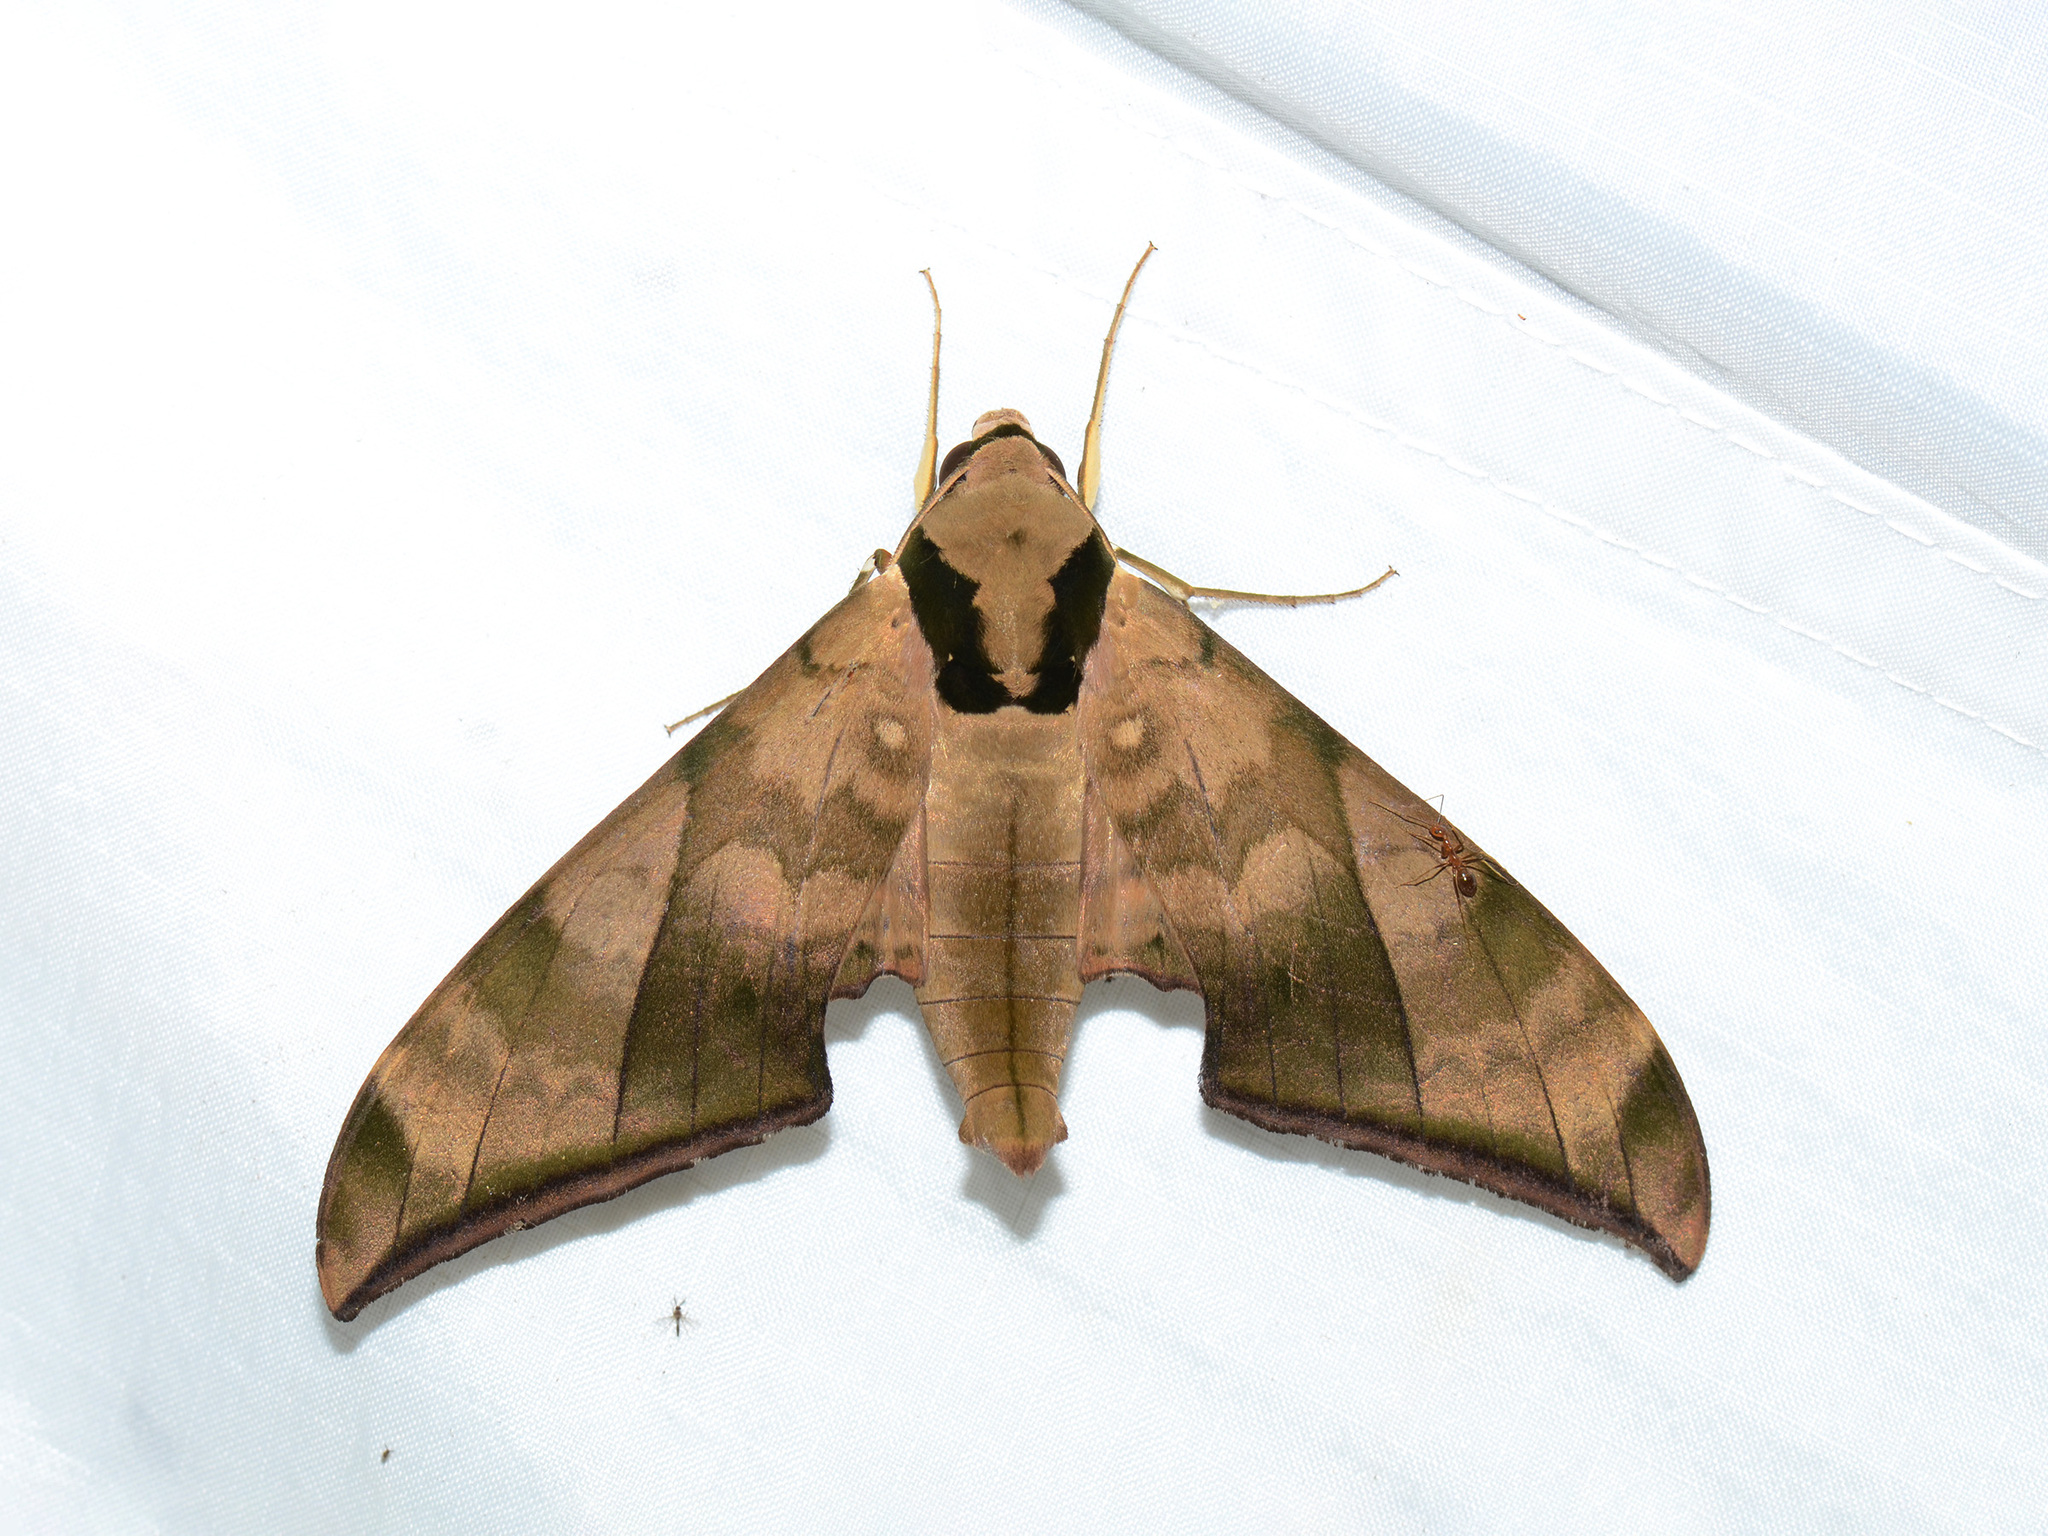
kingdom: Animalia
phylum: Arthropoda
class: Insecta
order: Lepidoptera
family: Sphingidae
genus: Ambulyx
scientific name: Ambulyx tattina
